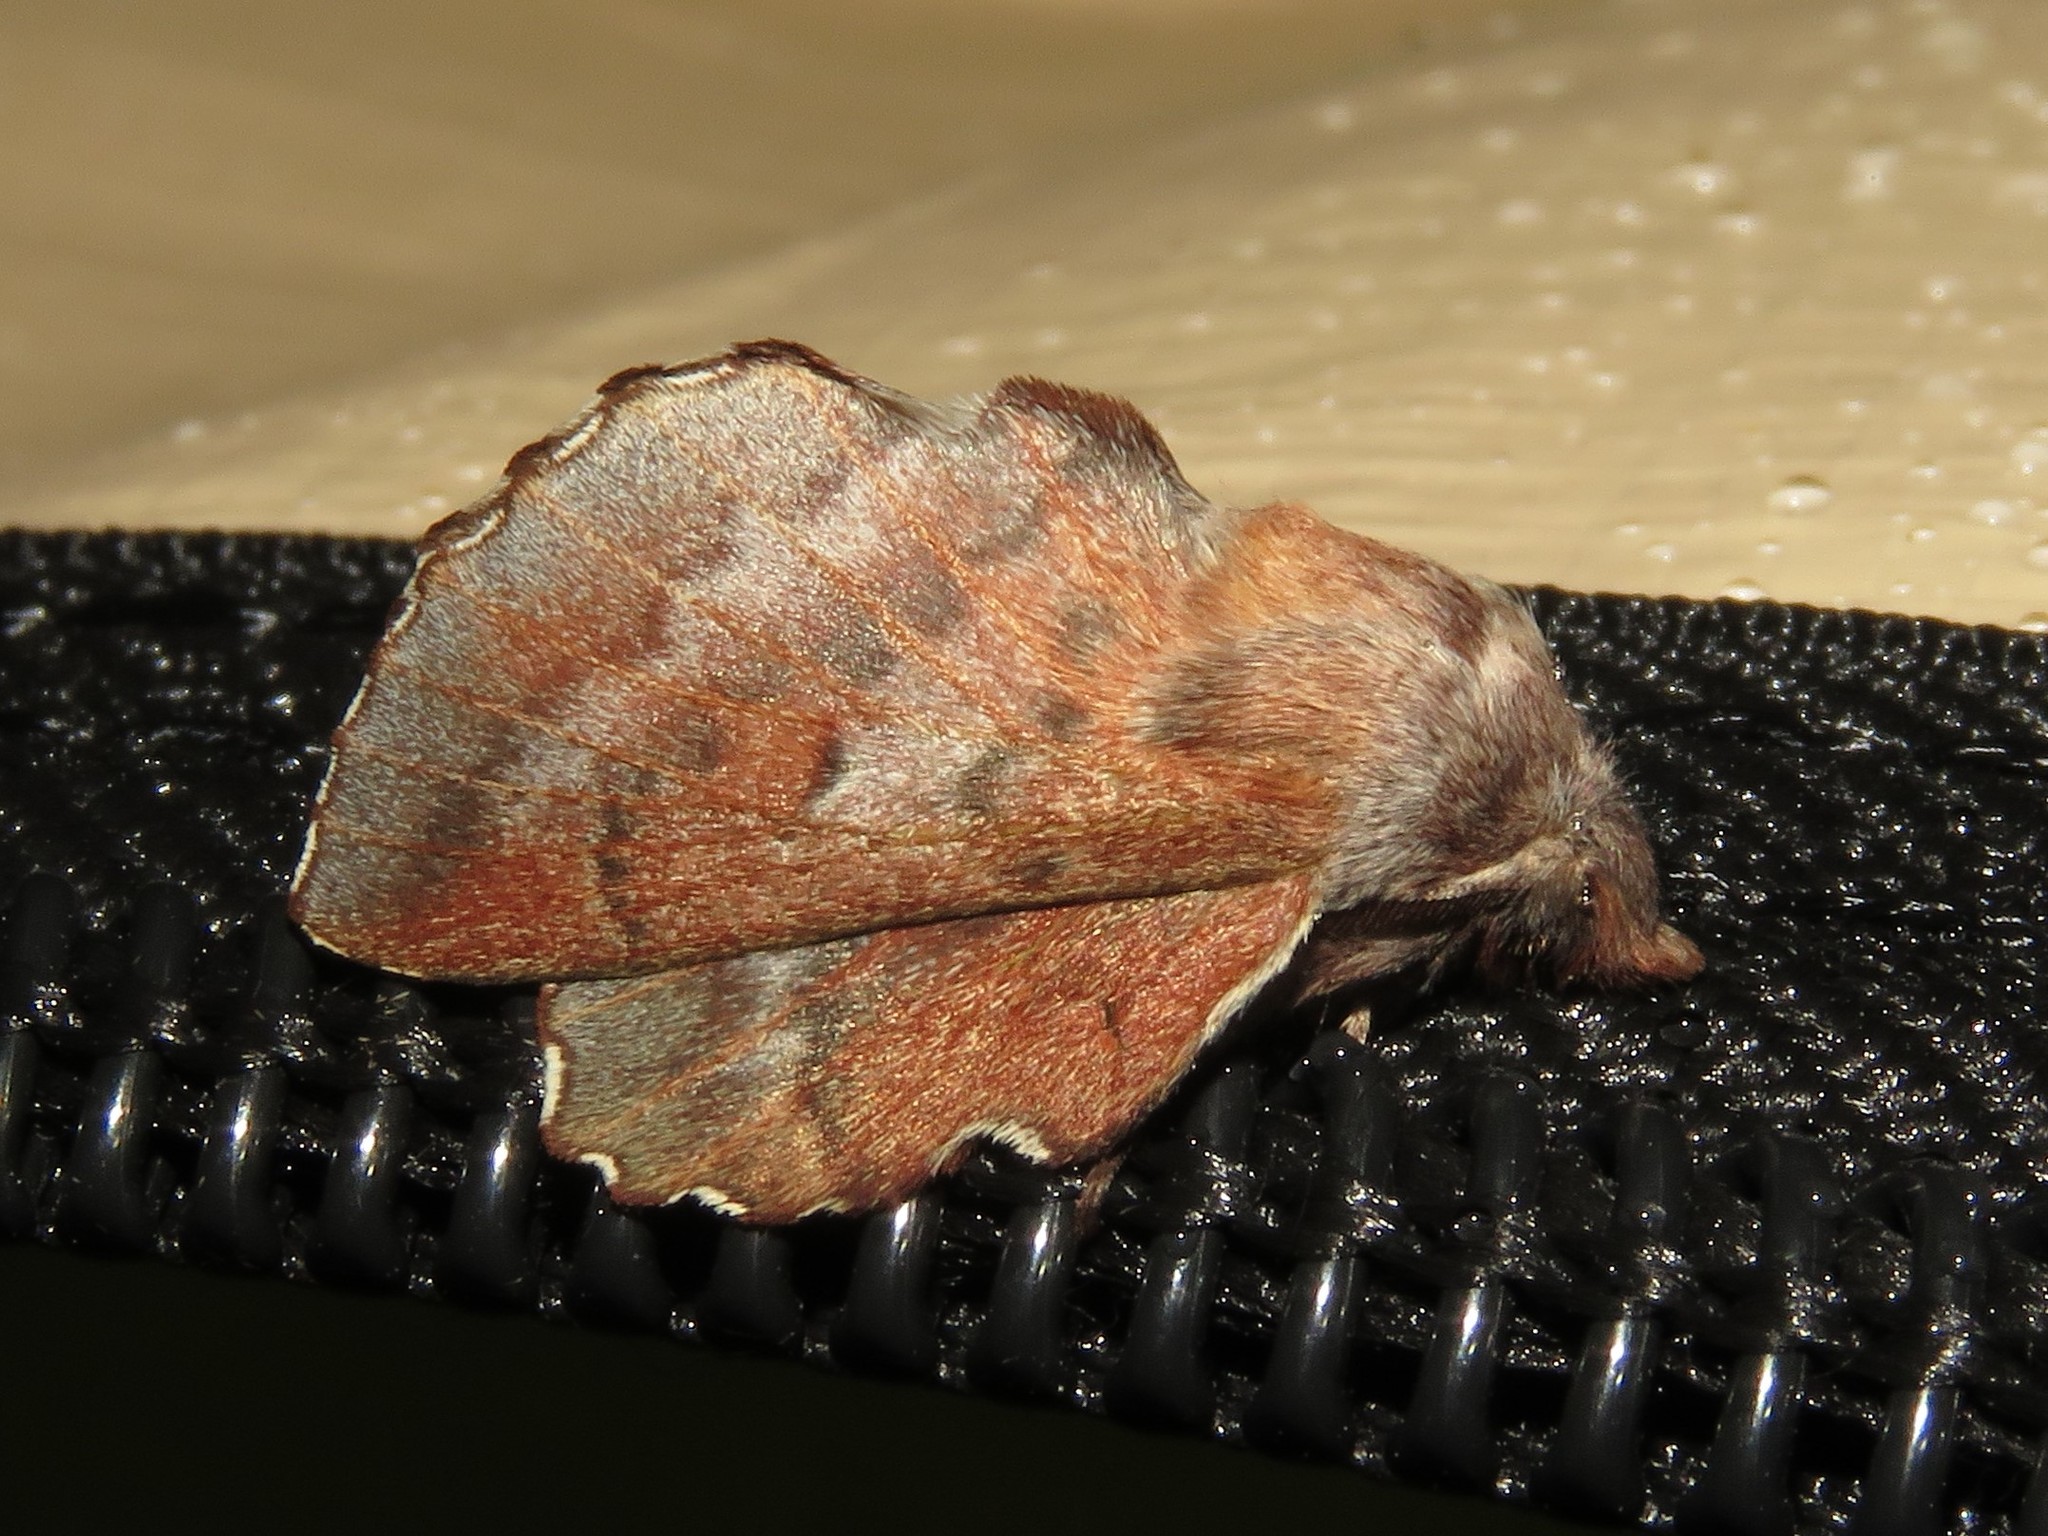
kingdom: Animalia
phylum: Arthropoda
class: Insecta
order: Lepidoptera
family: Lasiocampidae
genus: Phyllodesma
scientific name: Phyllodesma americana
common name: American lappet moth
